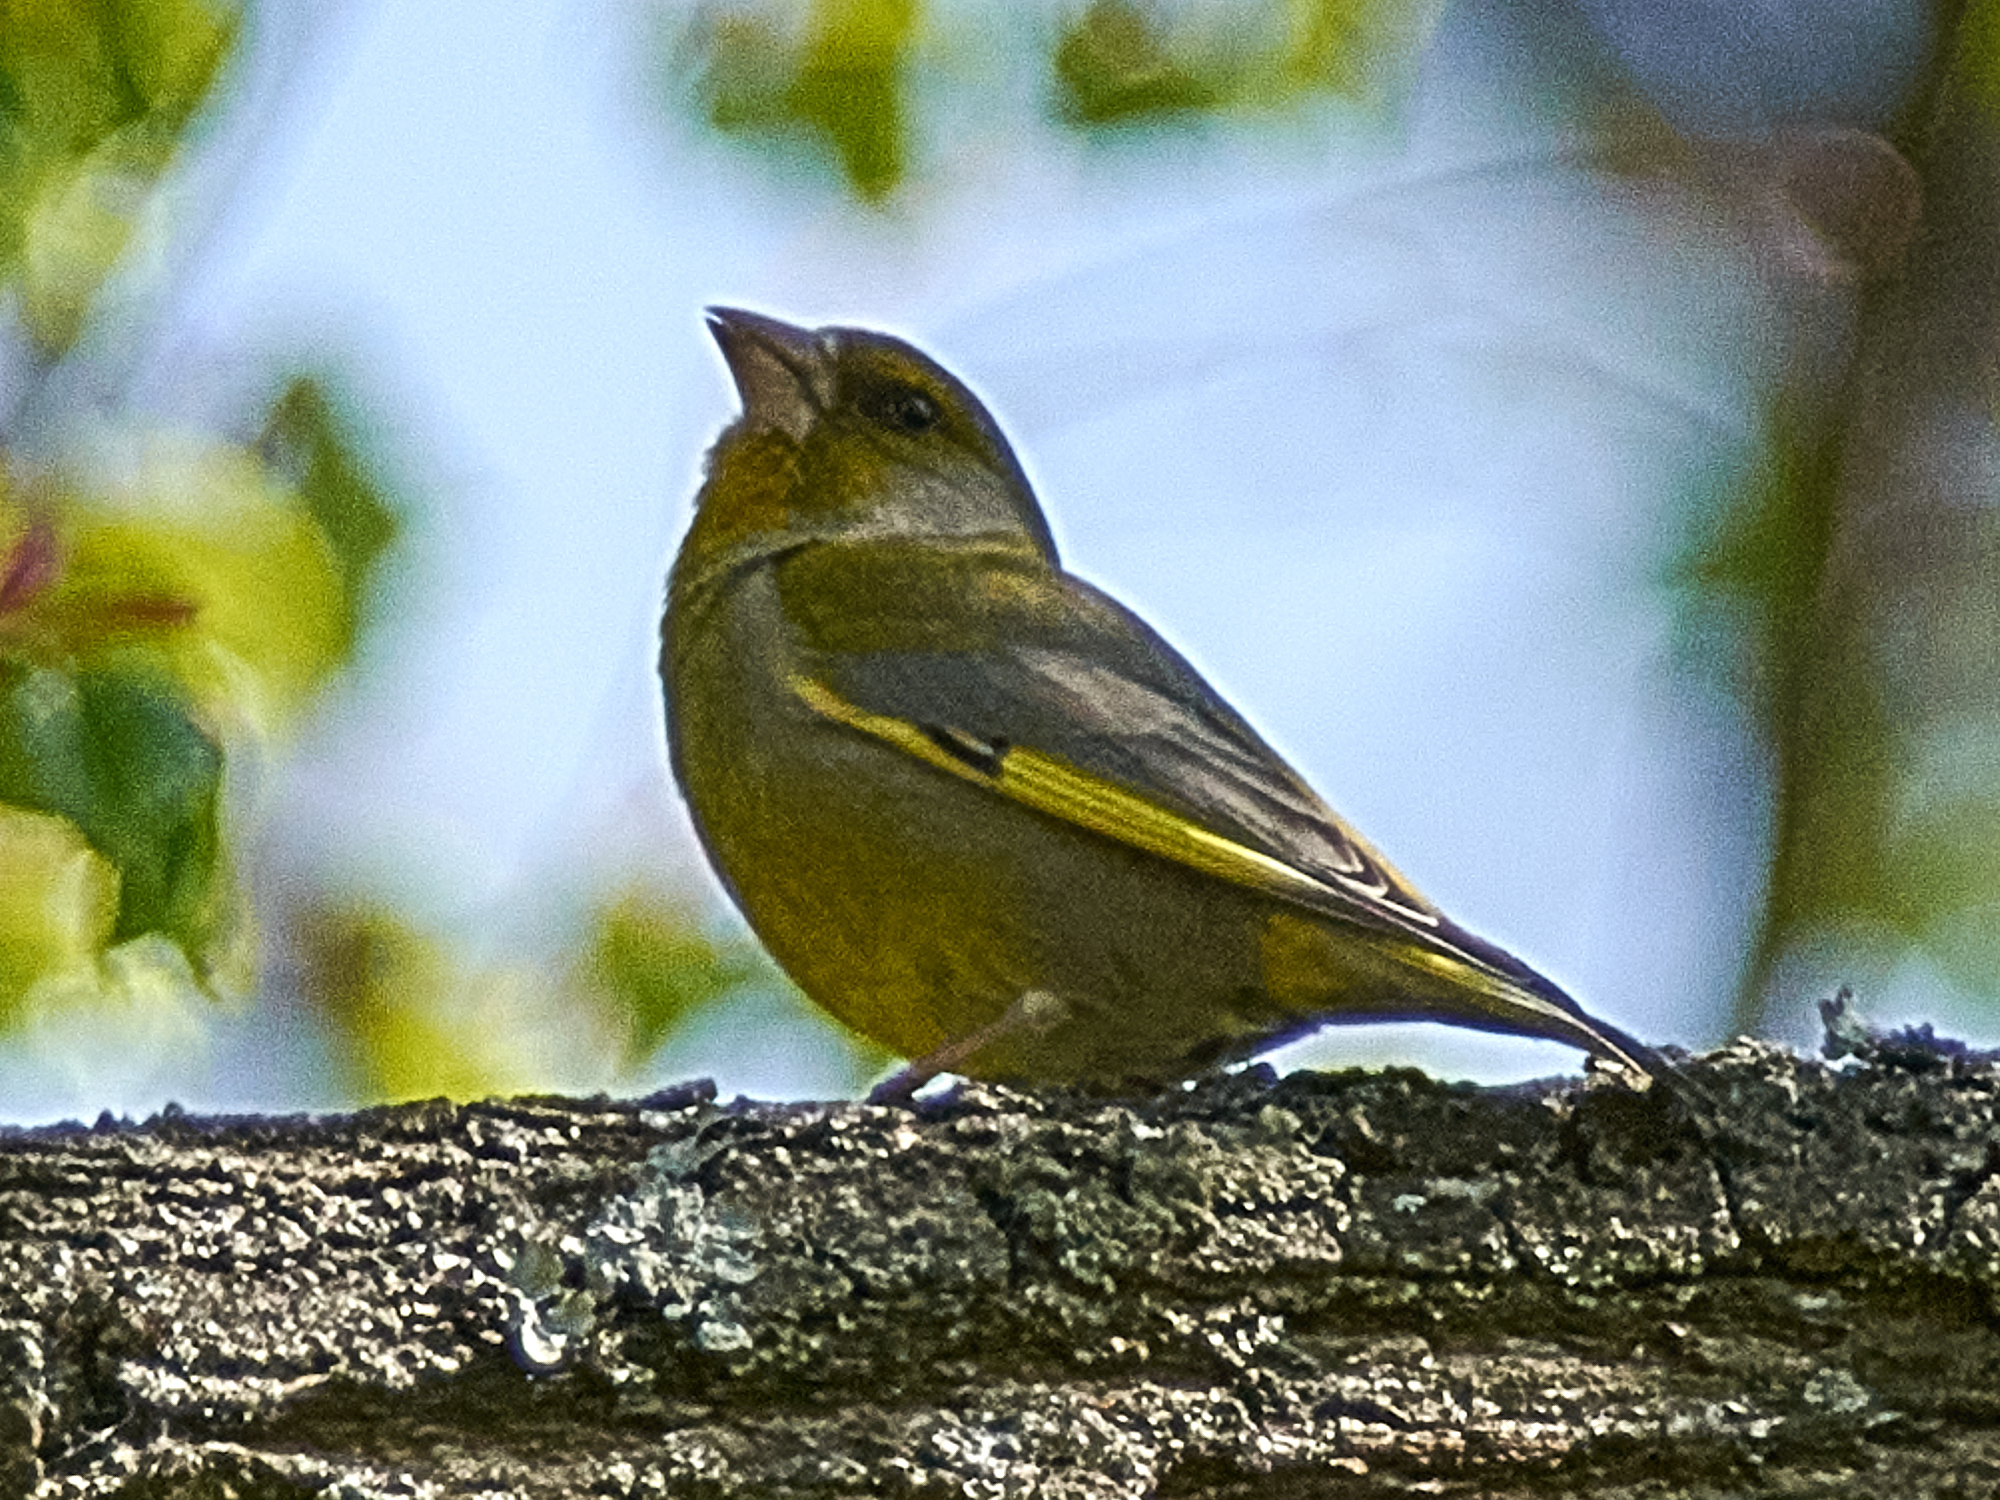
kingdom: Plantae
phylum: Tracheophyta
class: Liliopsida
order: Poales
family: Poaceae
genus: Chloris
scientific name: Chloris chloris
